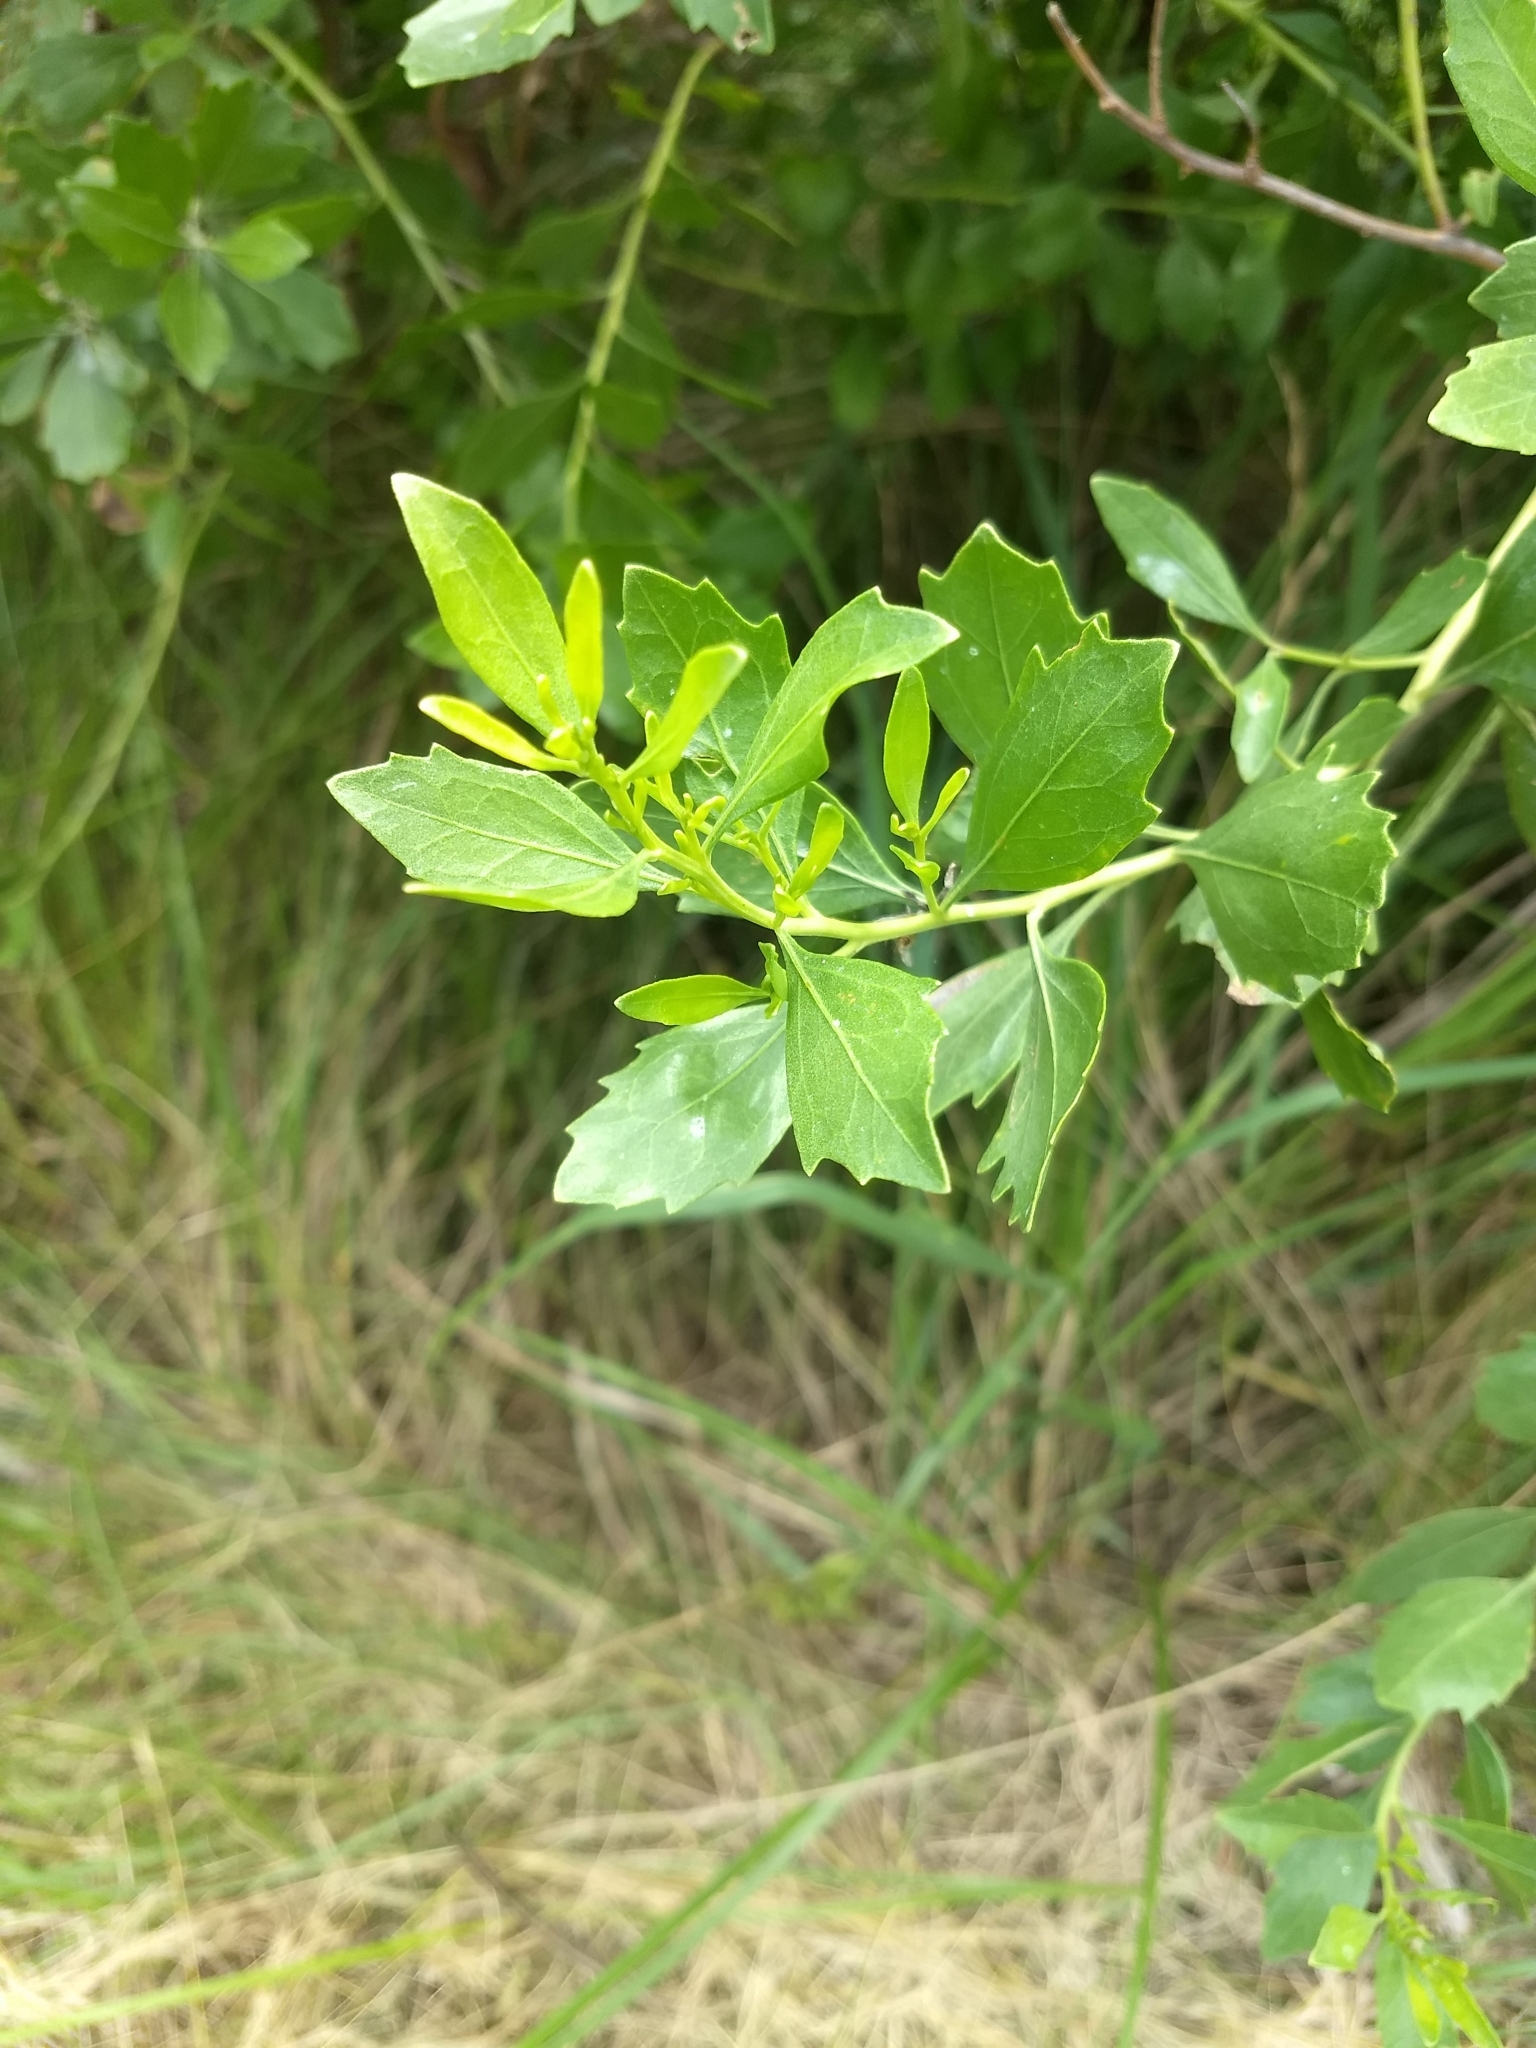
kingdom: Plantae
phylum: Tracheophyta
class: Magnoliopsida
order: Asterales
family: Asteraceae
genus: Baccharis
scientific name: Baccharis halimifolia
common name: Eastern baccharis
